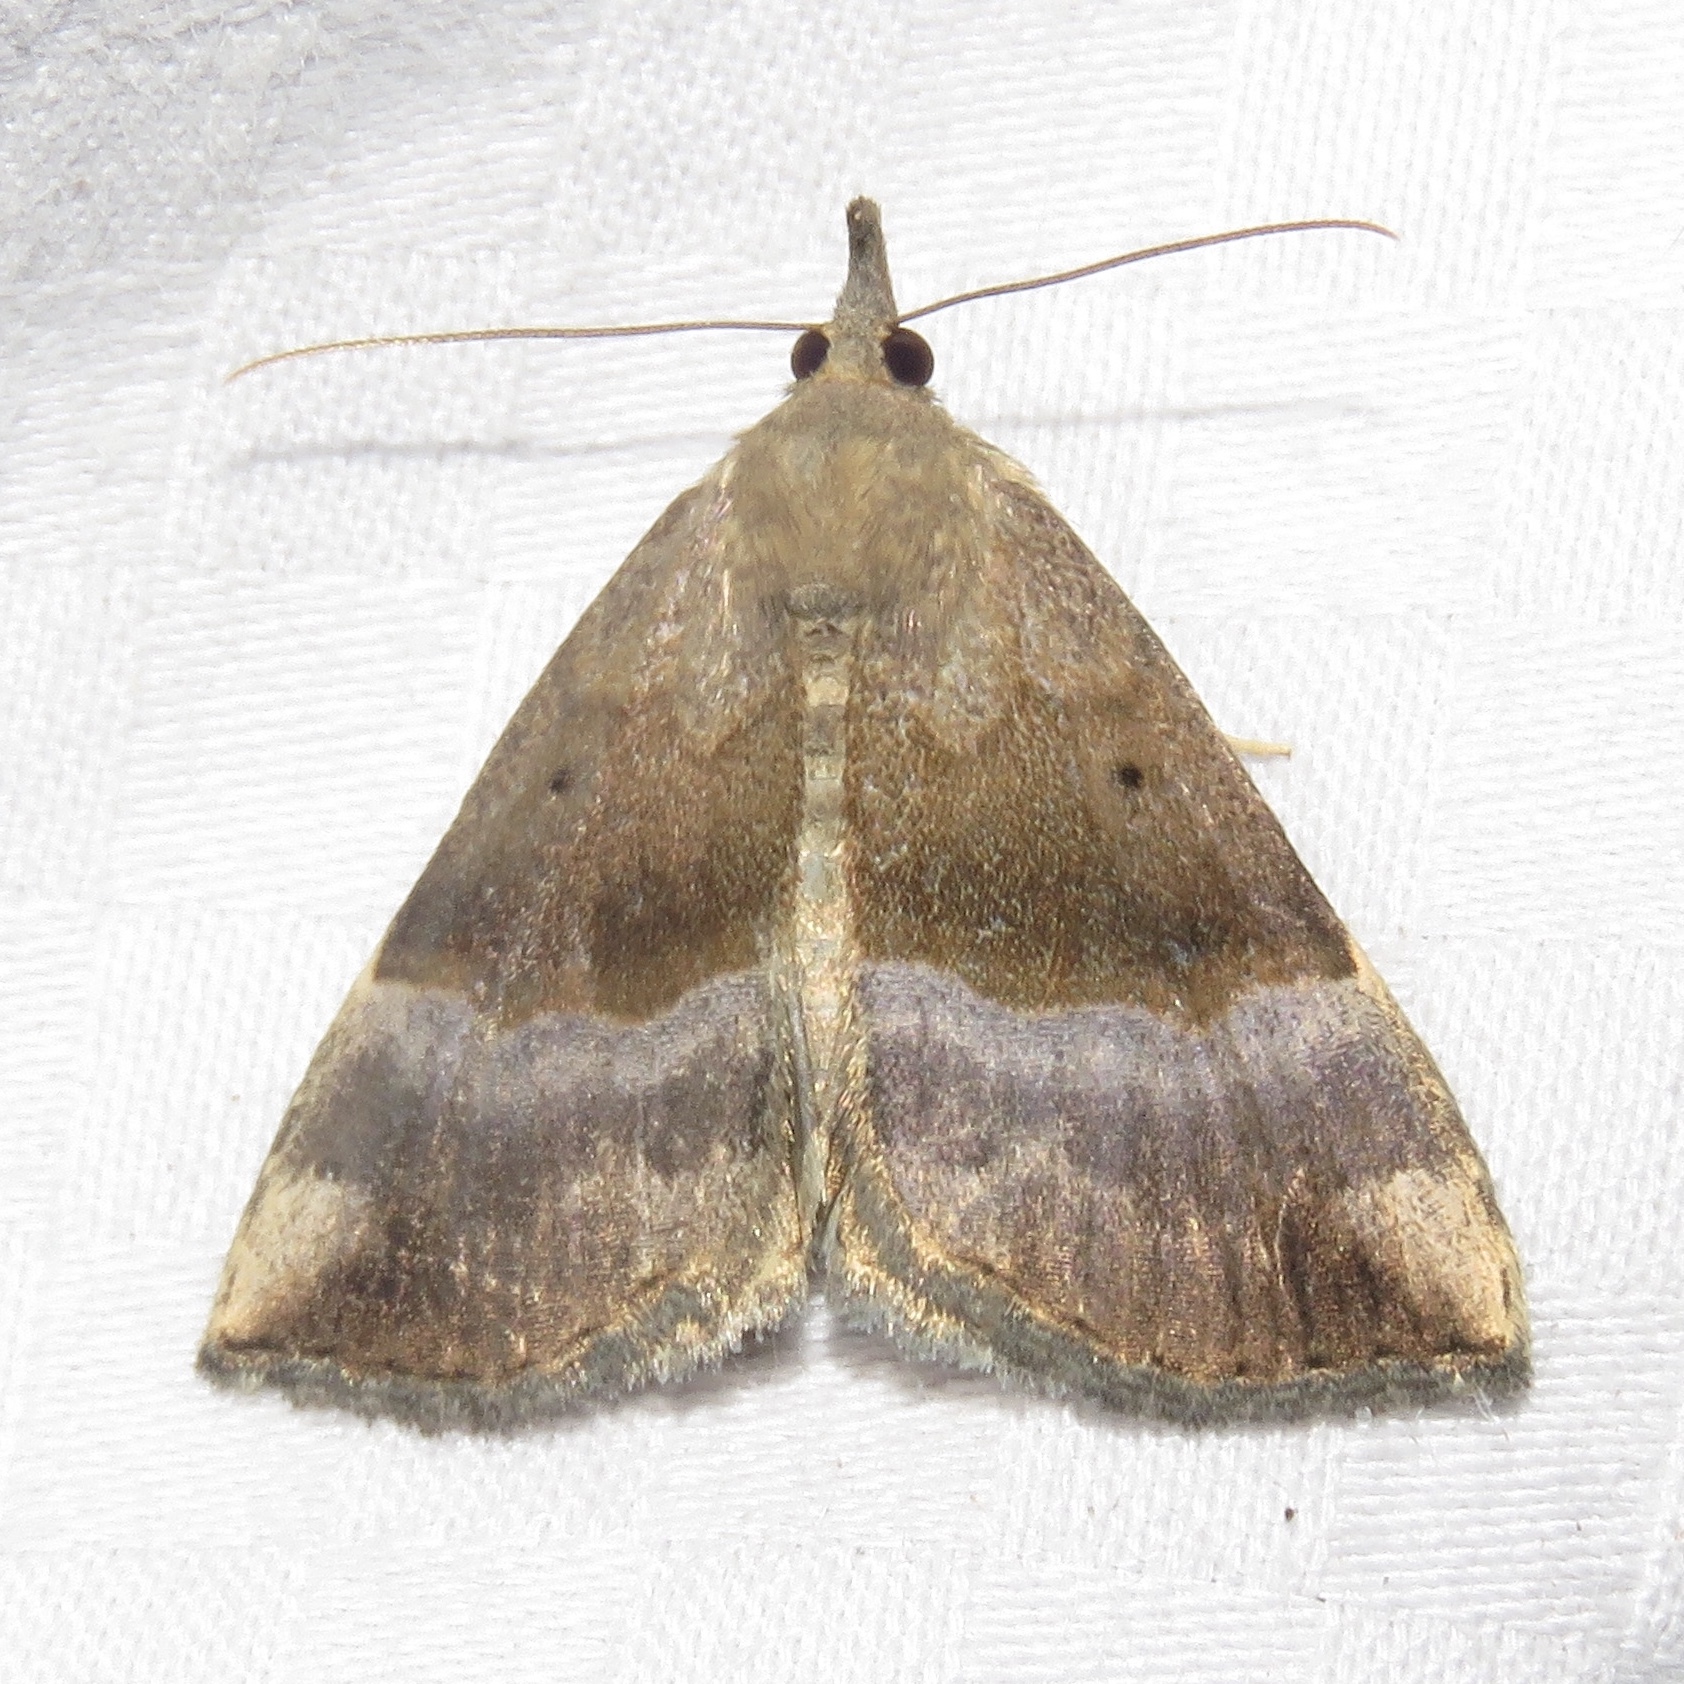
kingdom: Animalia
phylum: Arthropoda
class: Insecta
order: Lepidoptera
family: Erebidae
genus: Hypena
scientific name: Hypena madefactalis
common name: Gray-edged snout
